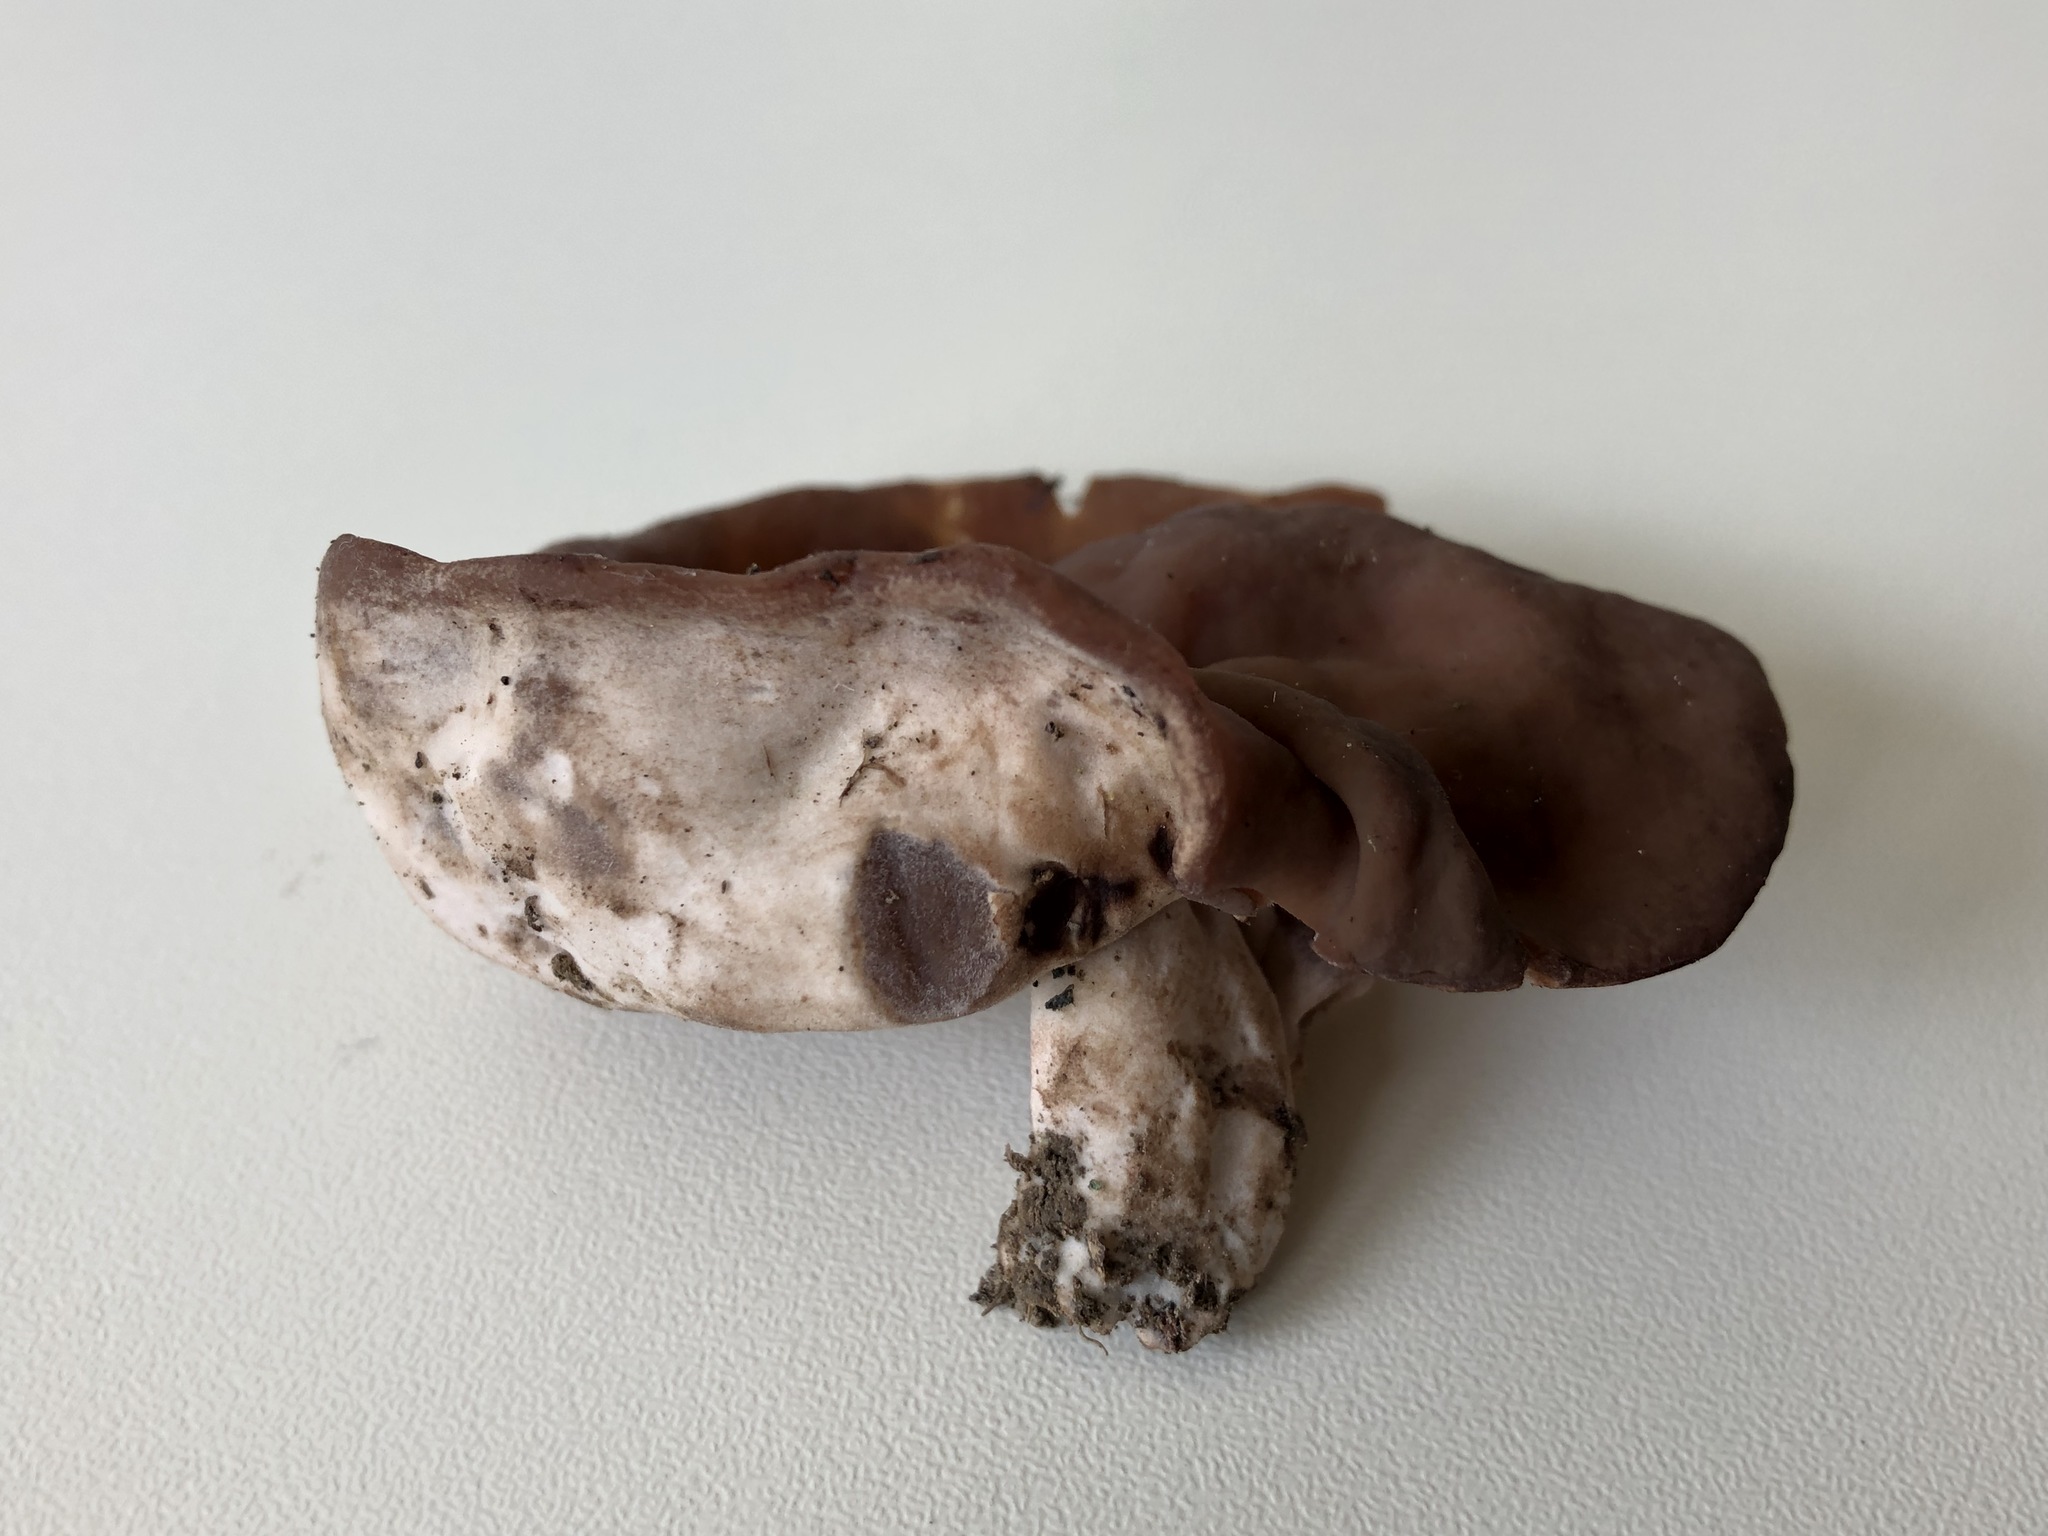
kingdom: Fungi
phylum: Ascomycota
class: Pezizomycetes
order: Pezizales
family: Discinaceae
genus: Discina
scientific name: Discina
